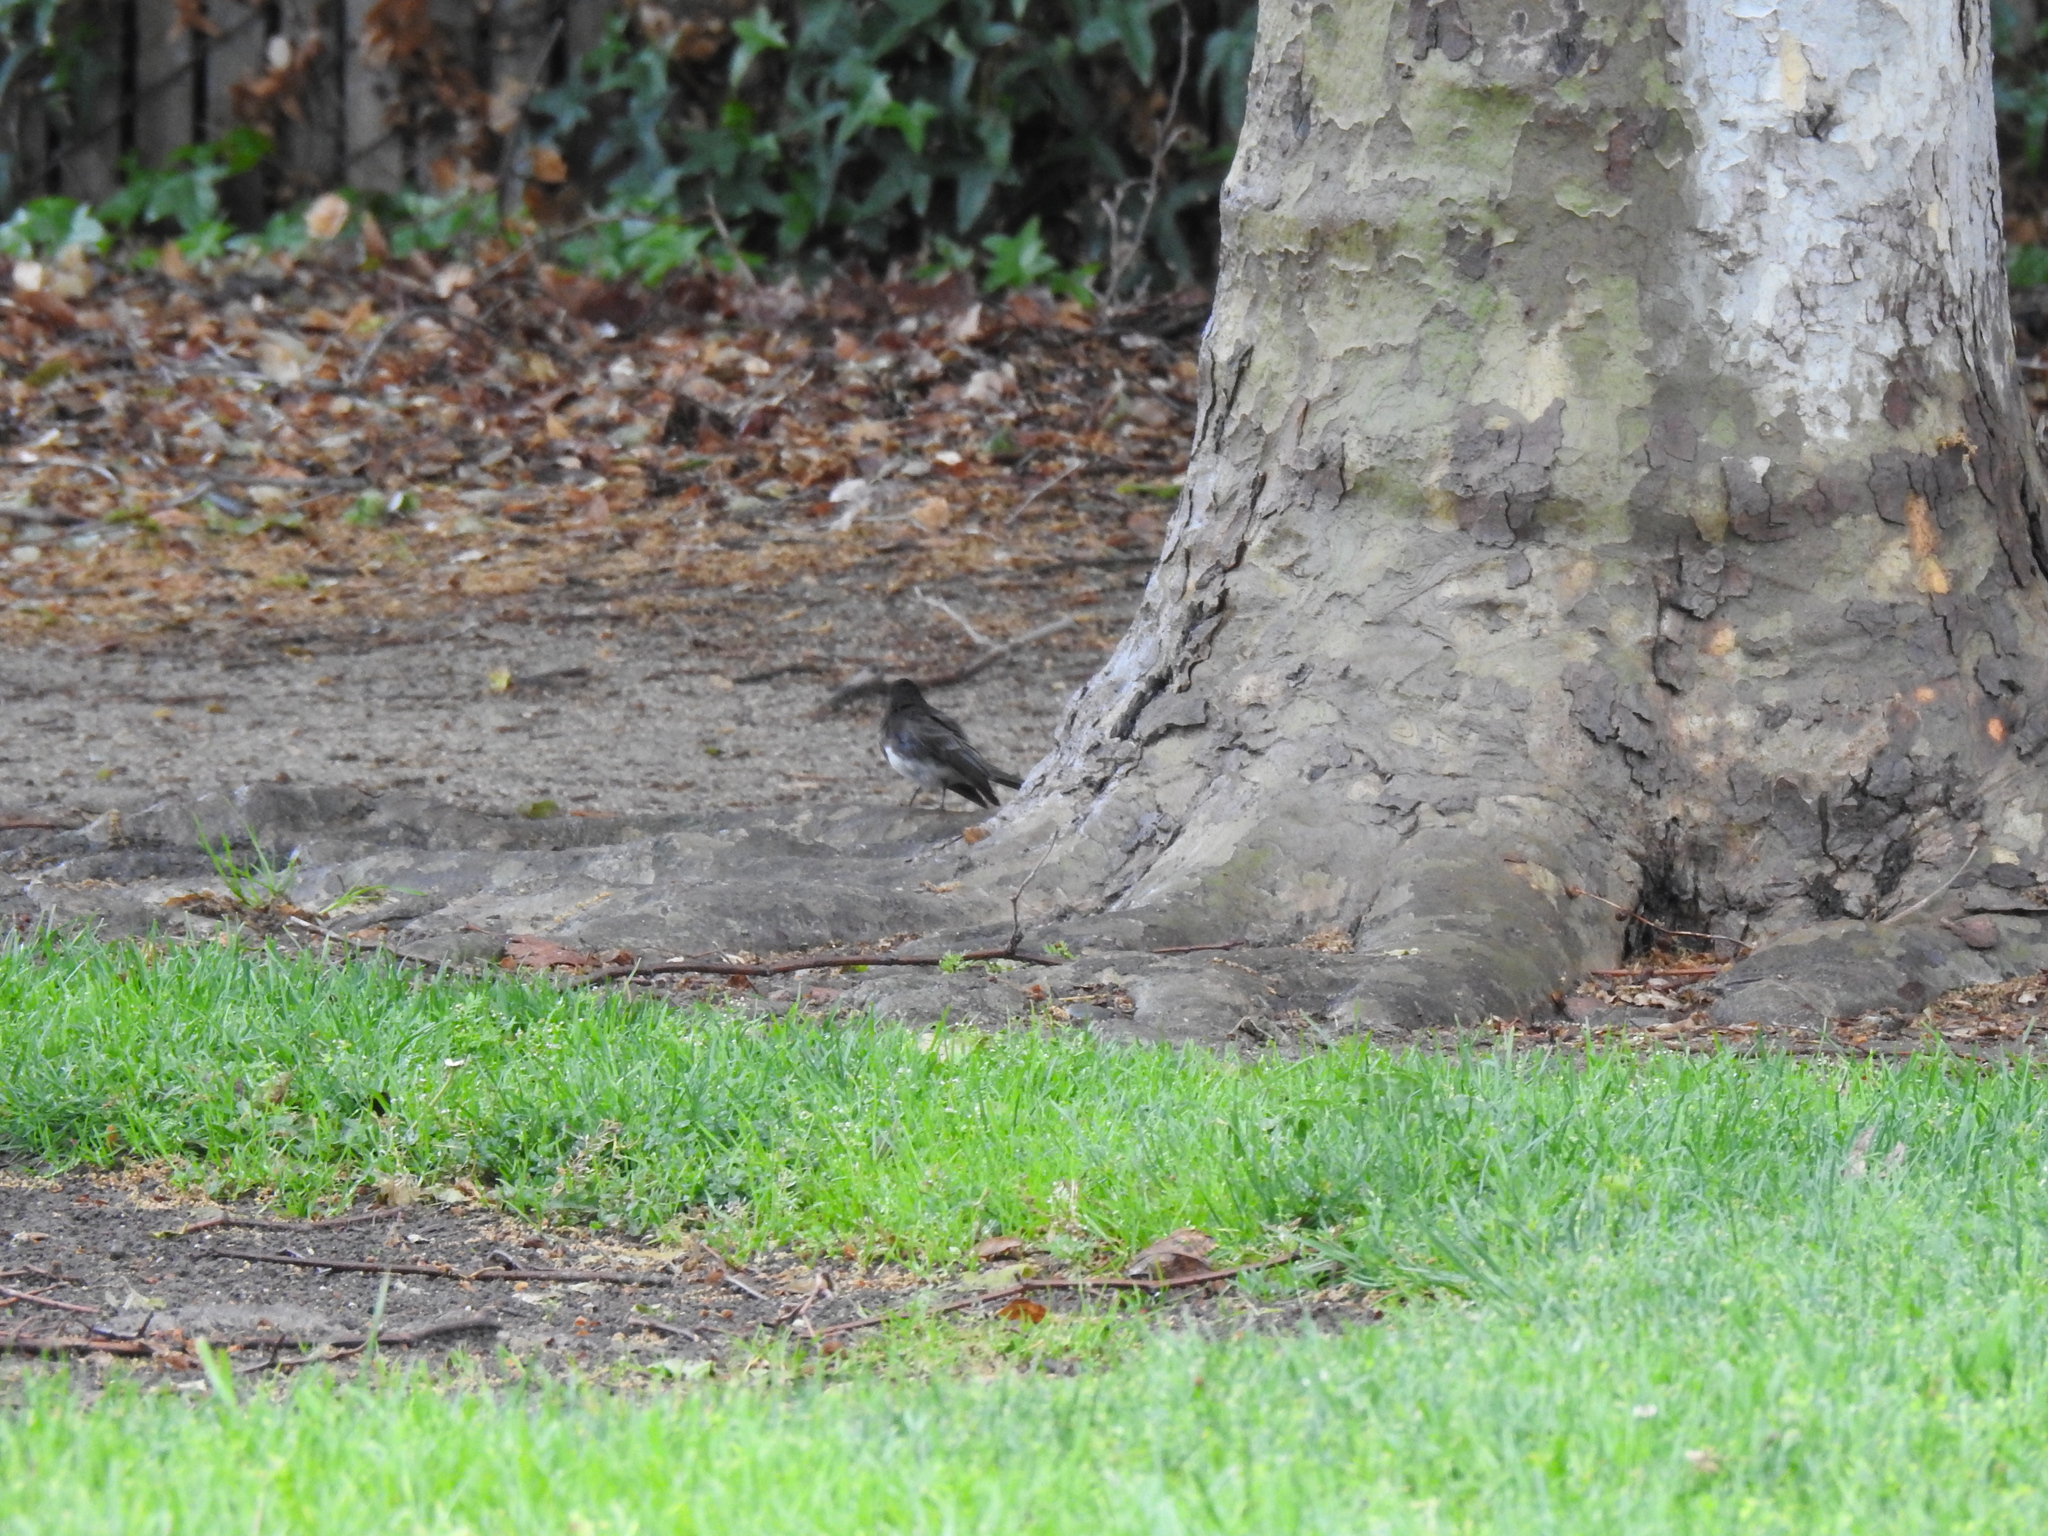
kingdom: Animalia
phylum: Chordata
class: Aves
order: Passeriformes
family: Tyrannidae
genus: Sayornis
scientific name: Sayornis nigricans
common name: Black phoebe
